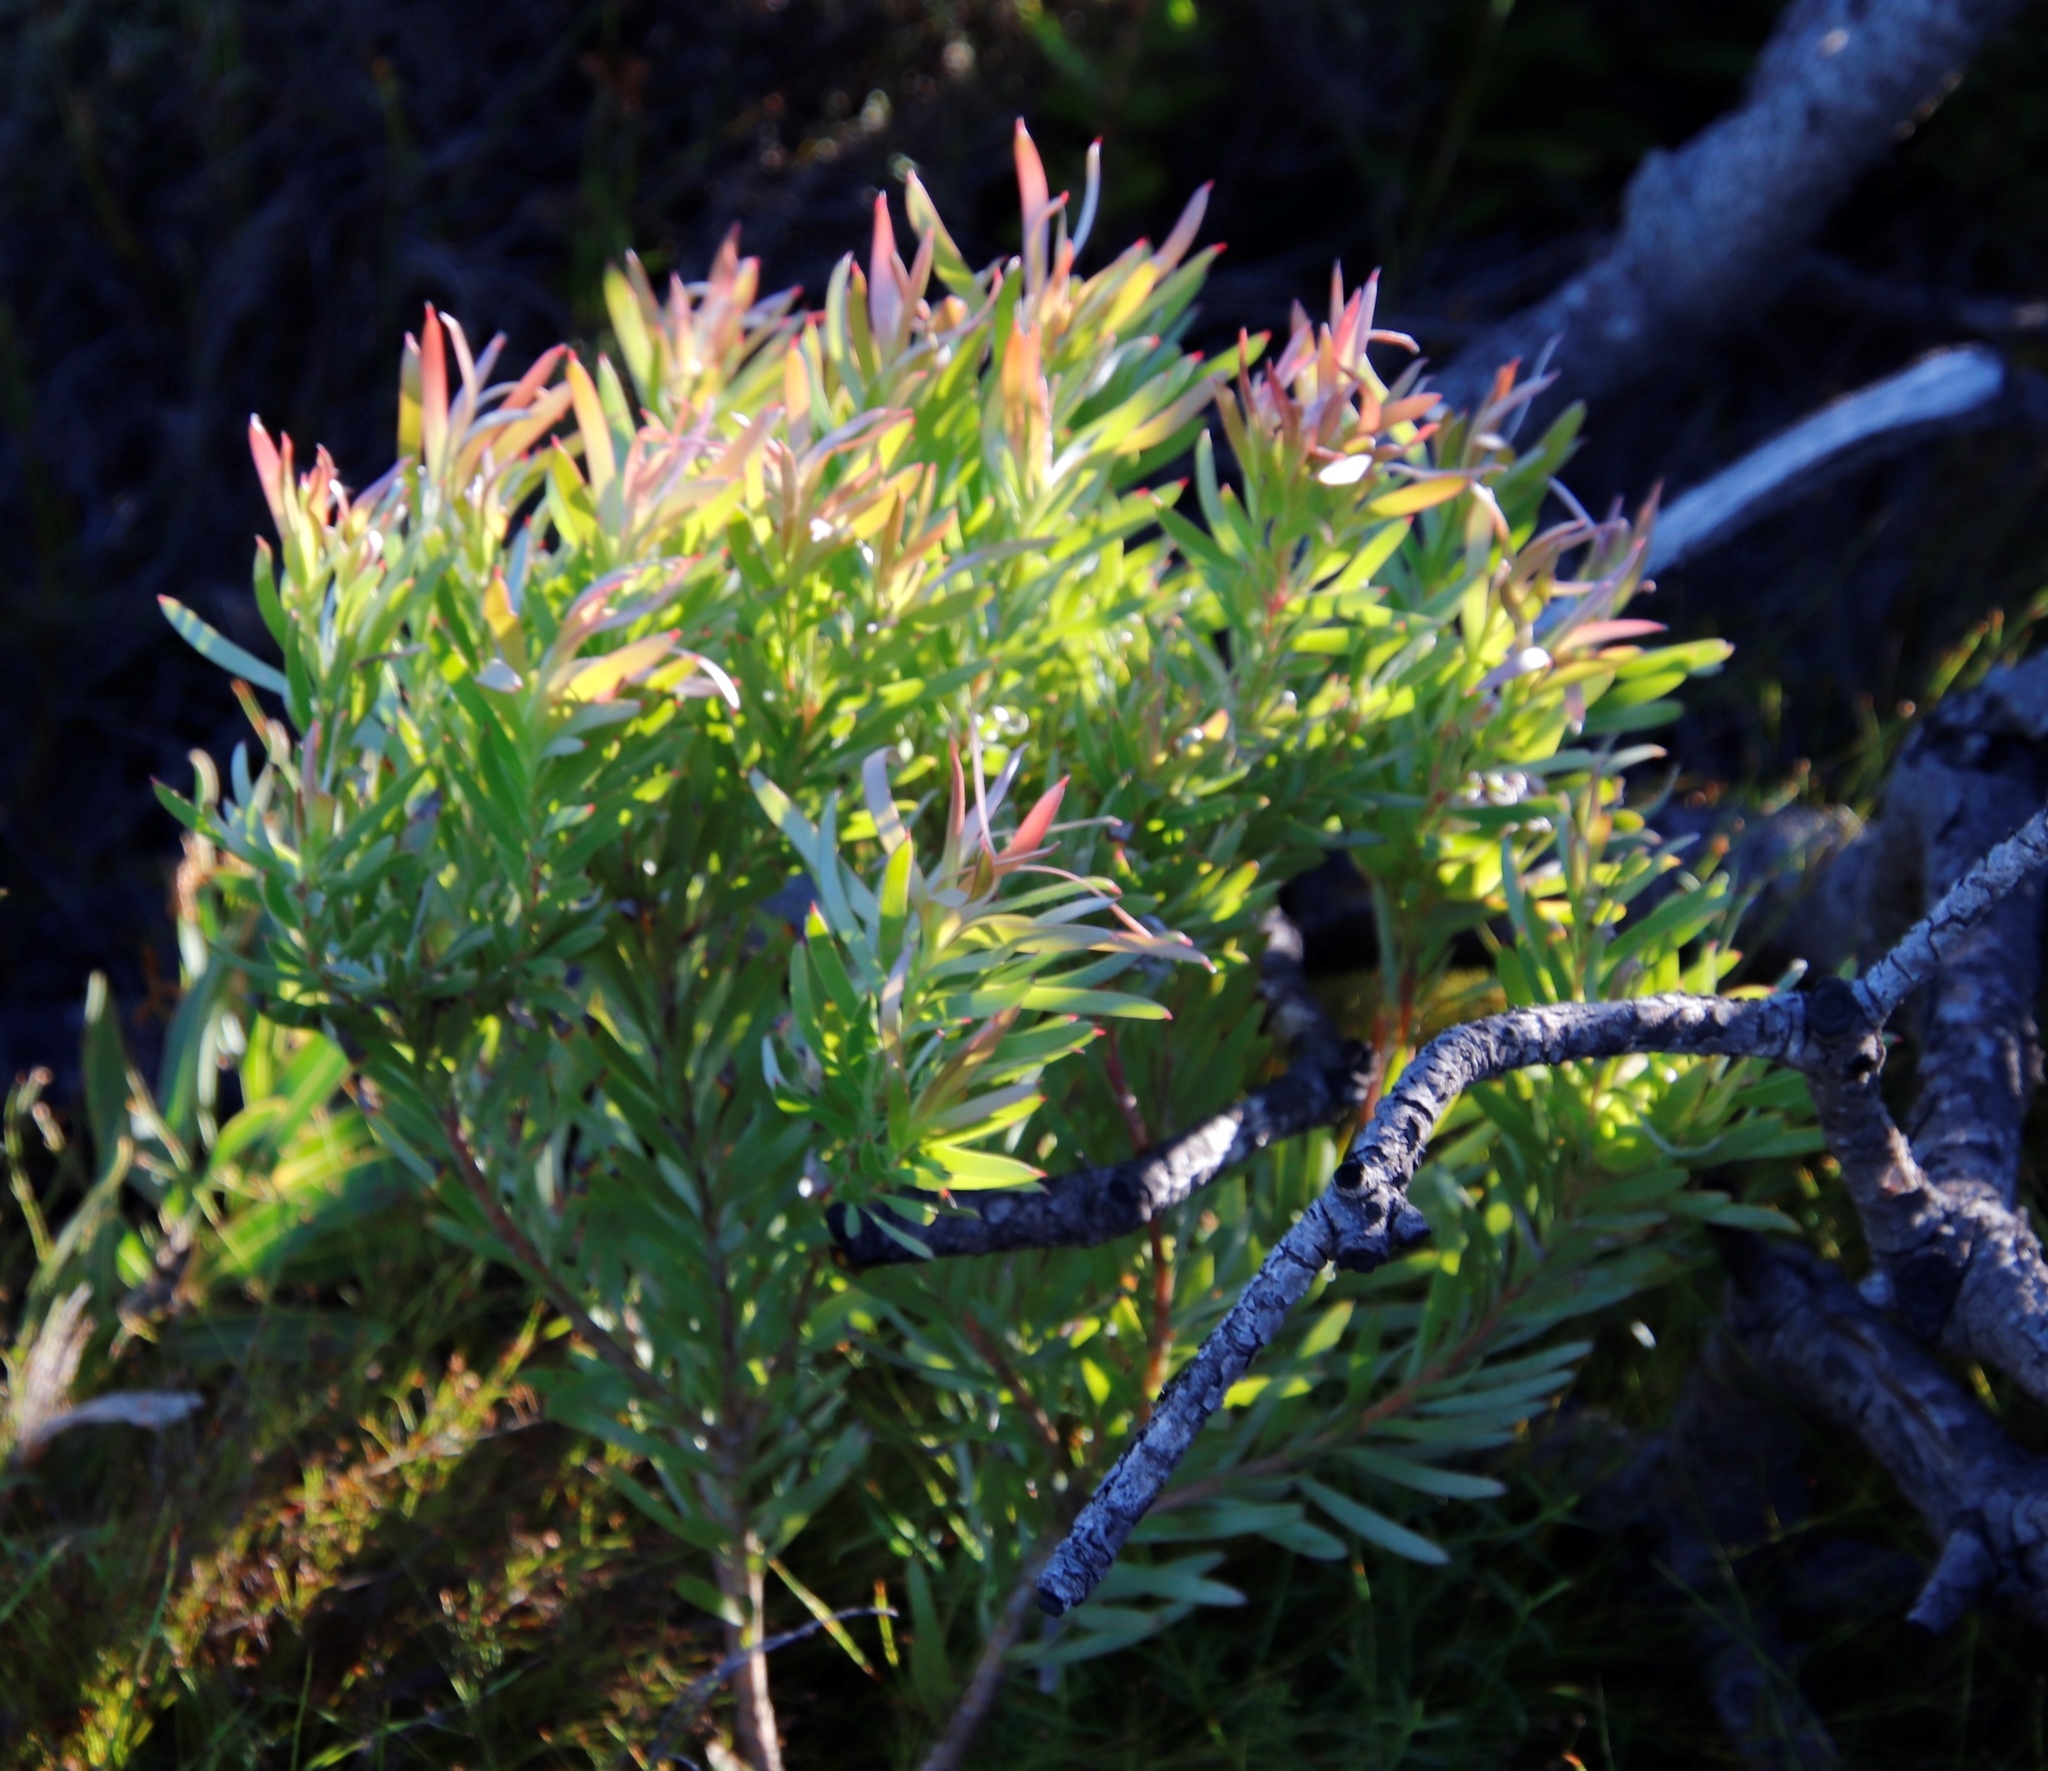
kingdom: Plantae
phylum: Tracheophyta
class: Magnoliopsida
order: Proteales
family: Proteaceae
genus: Leucadendron
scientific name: Leucadendron xanthoconus
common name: Sickle-leaf conebush
